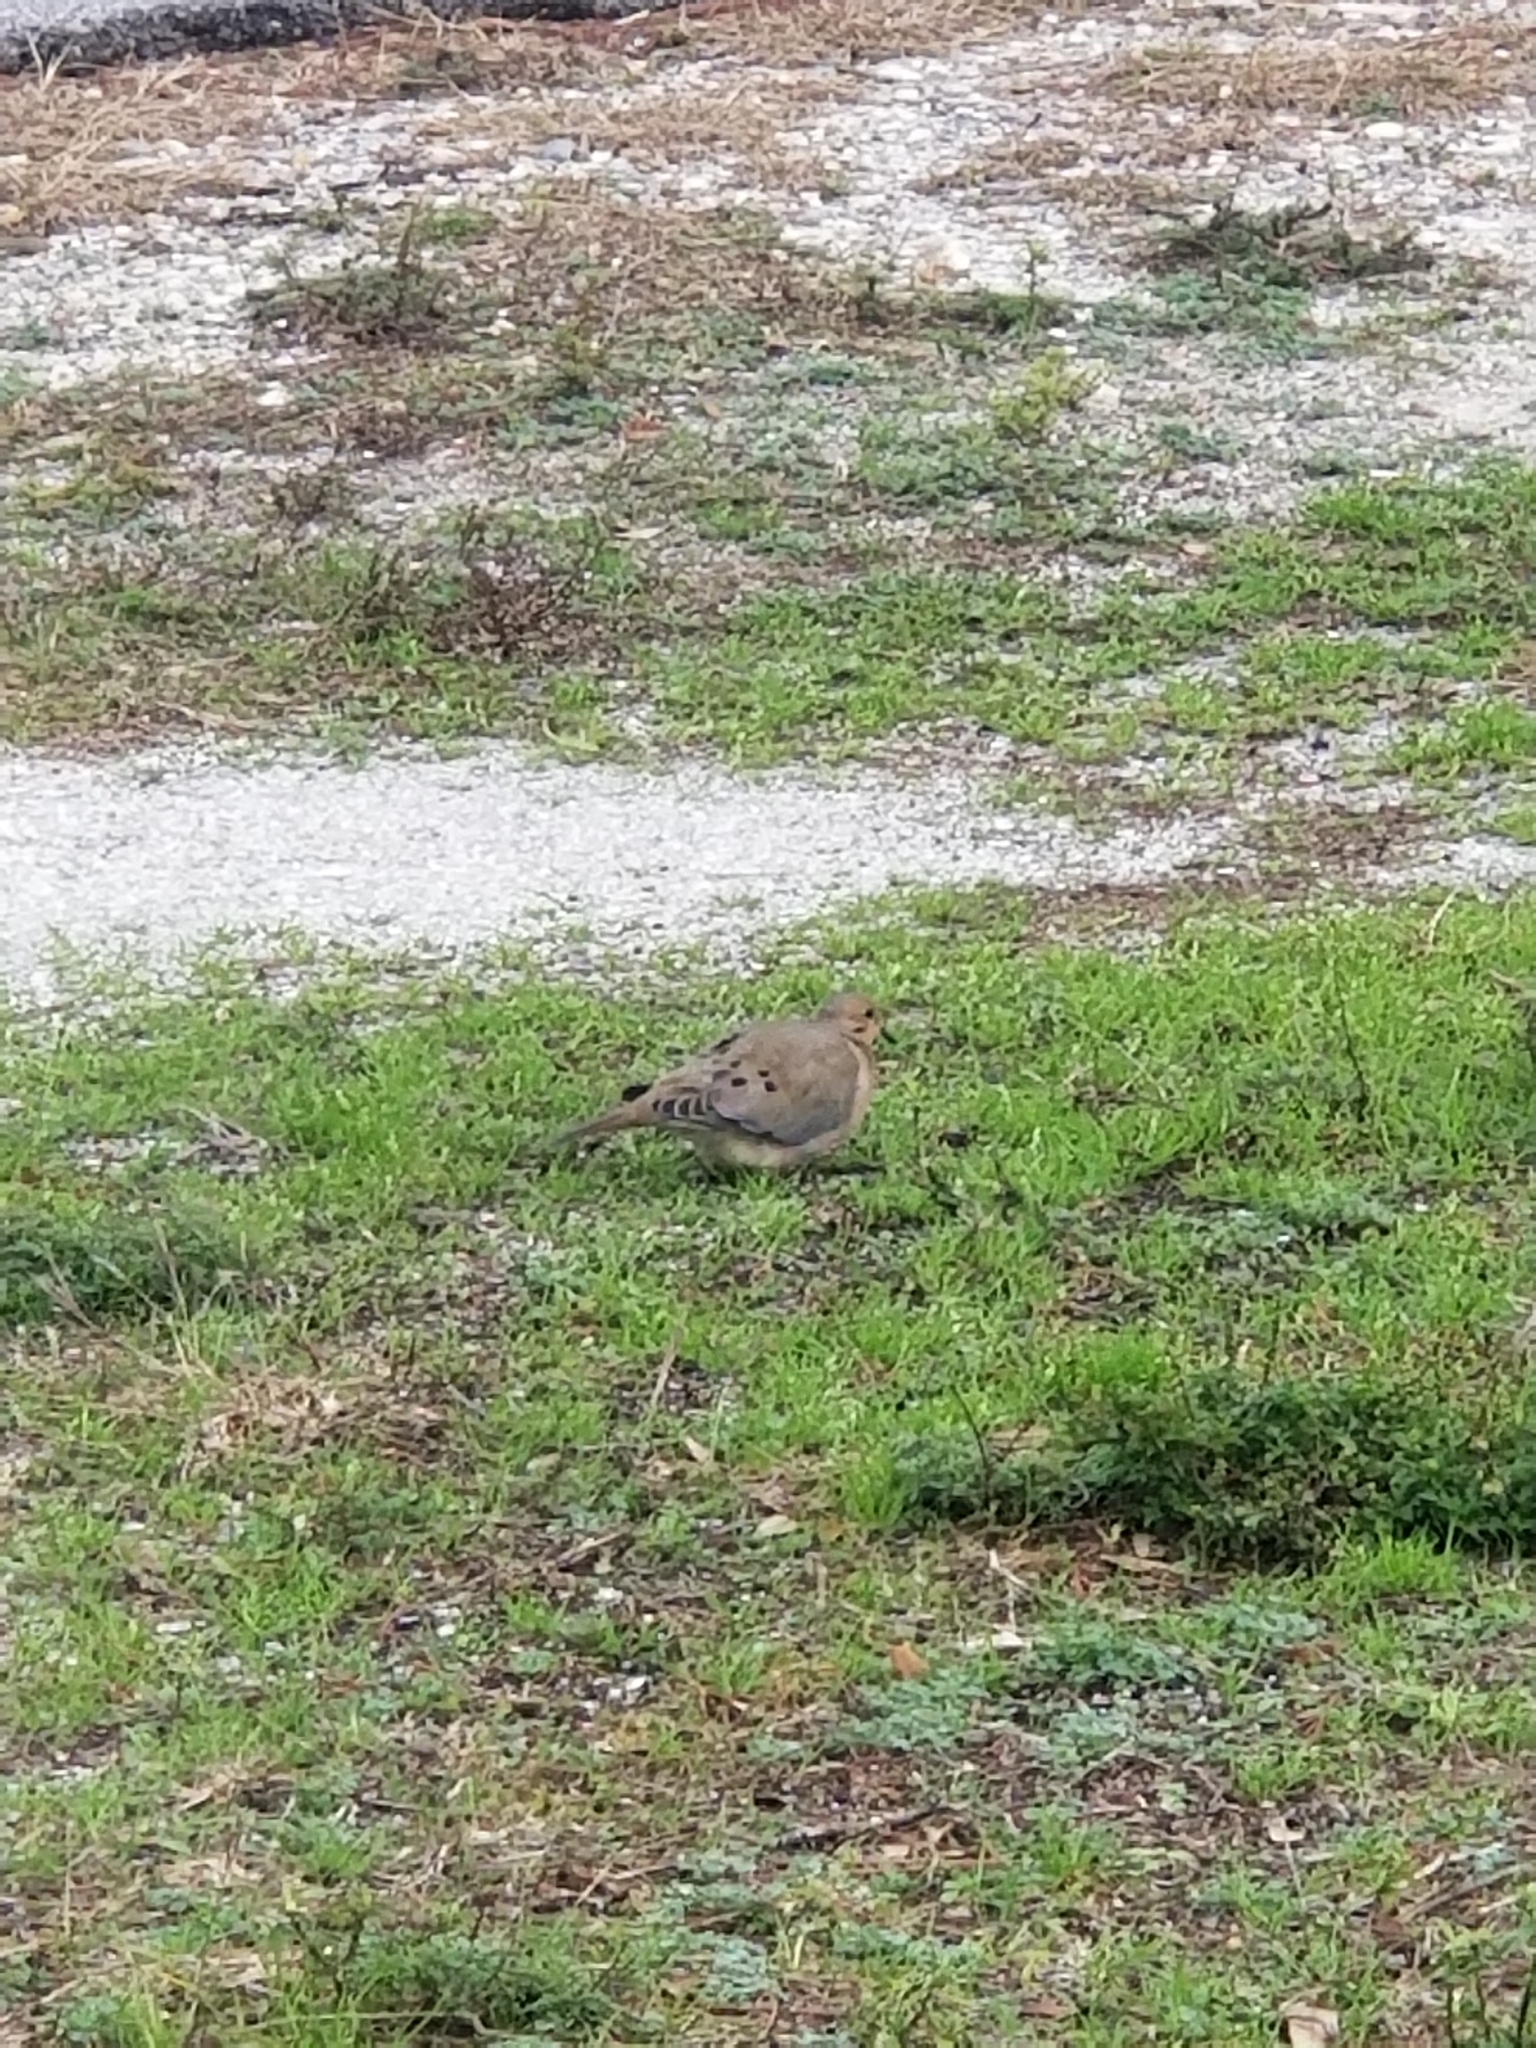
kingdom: Animalia
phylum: Chordata
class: Aves
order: Columbiformes
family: Columbidae
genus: Zenaida
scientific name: Zenaida macroura
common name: Mourning dove
